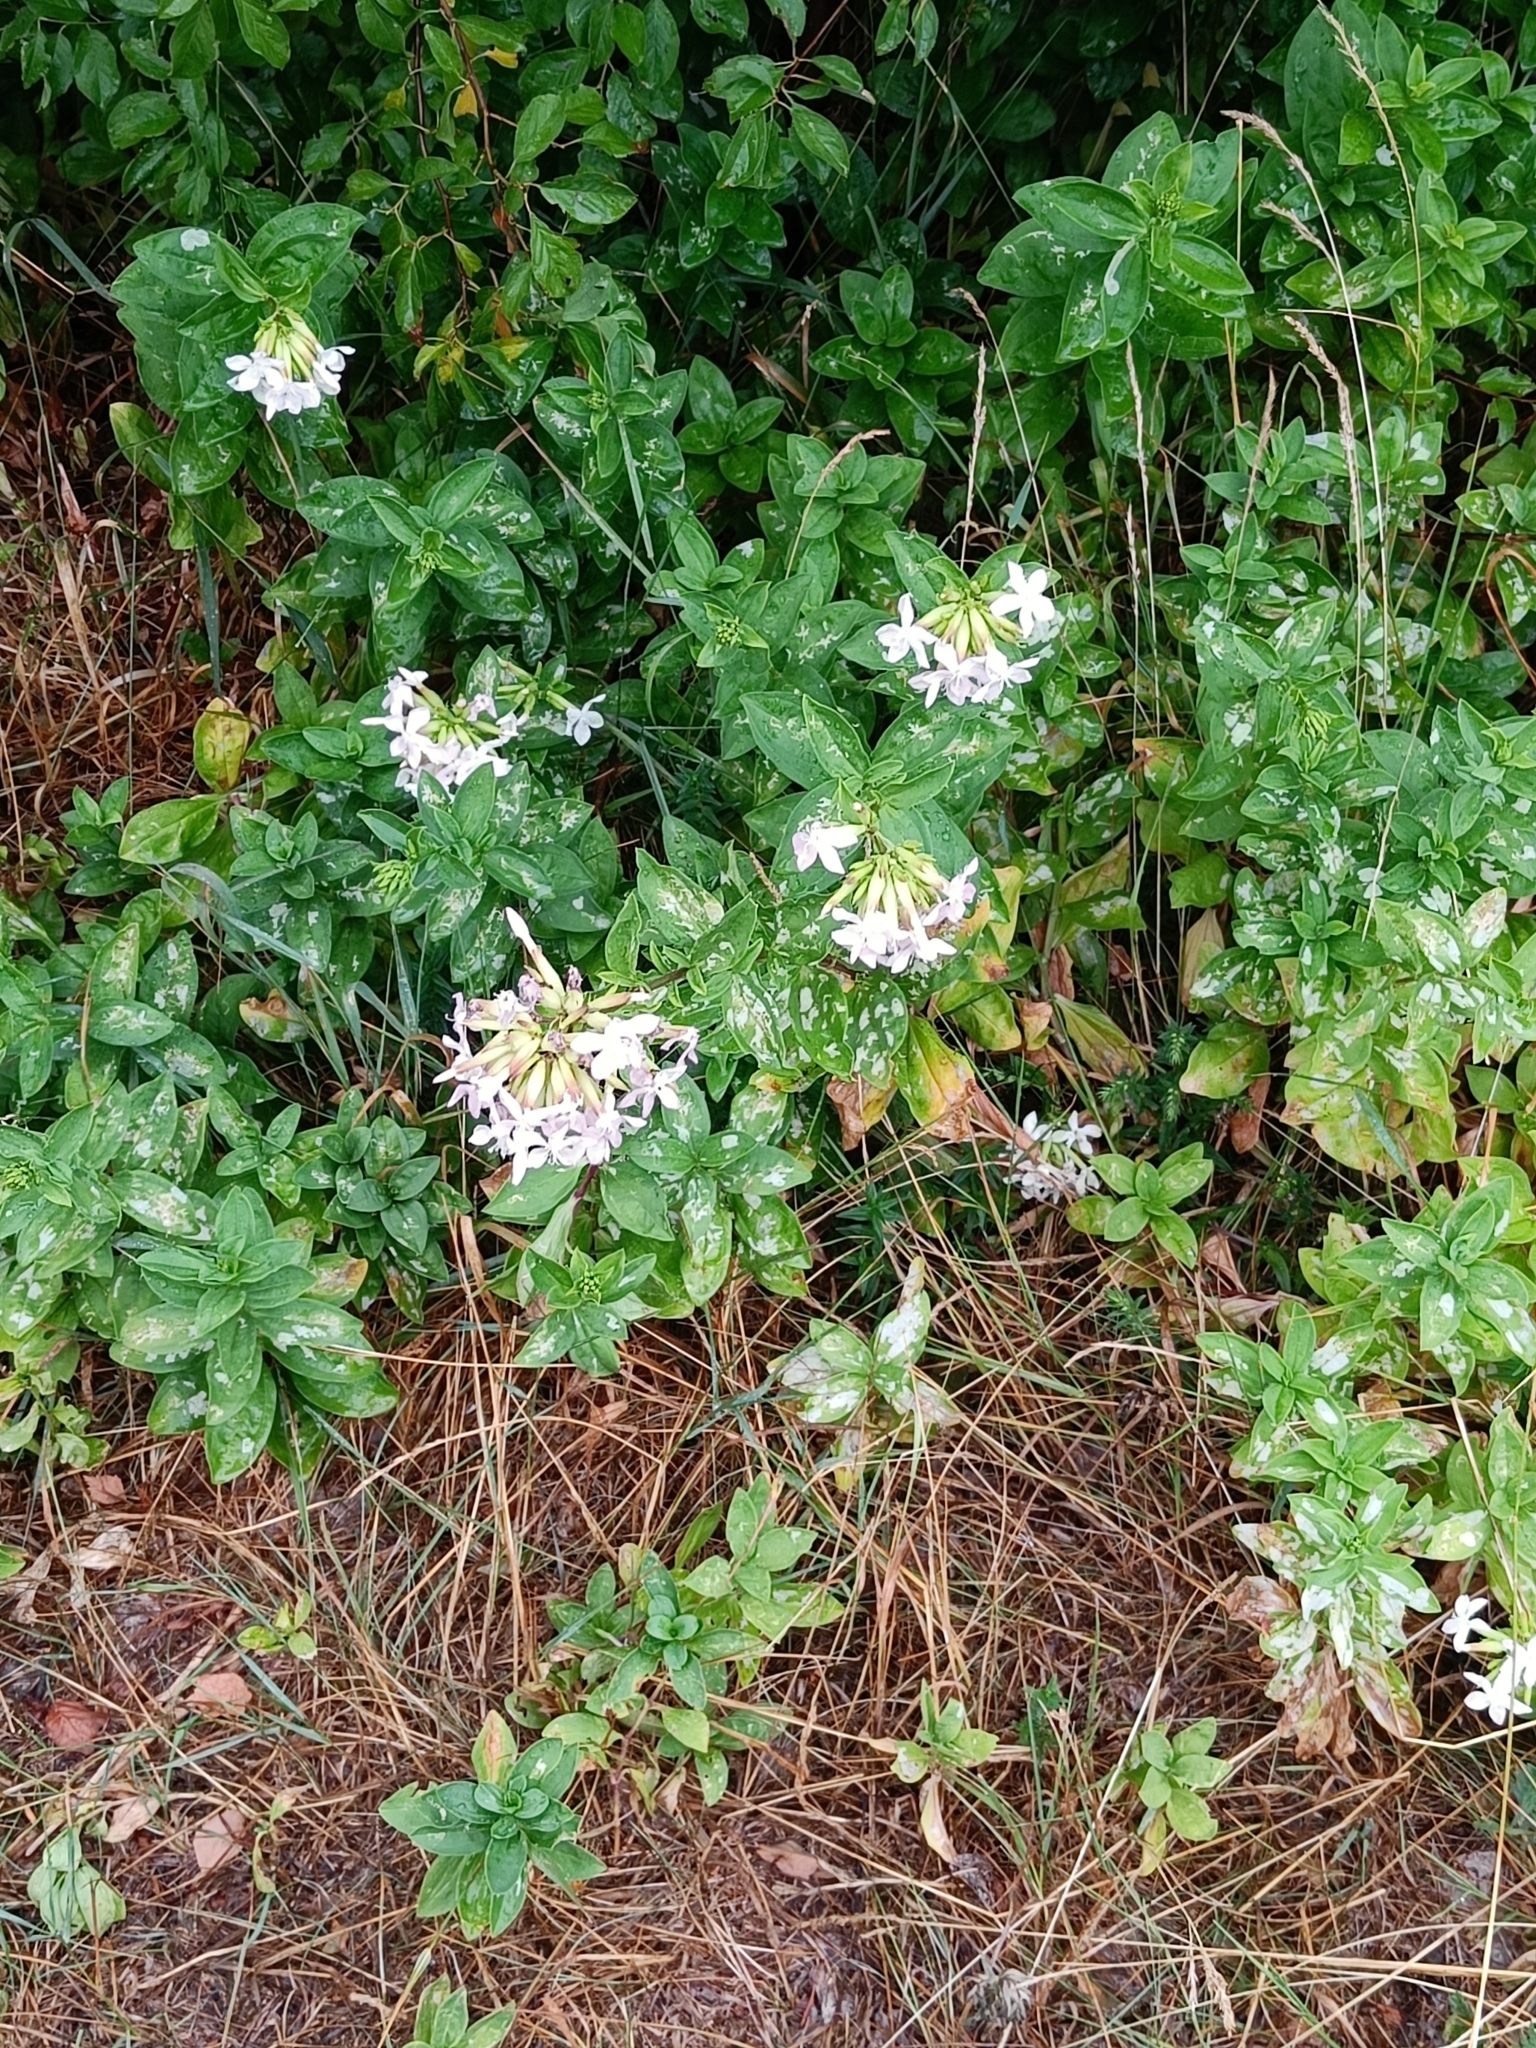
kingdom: Plantae
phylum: Tracheophyta
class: Magnoliopsida
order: Caryophyllales
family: Caryophyllaceae
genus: Saponaria
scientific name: Saponaria officinalis
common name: Soapwort
